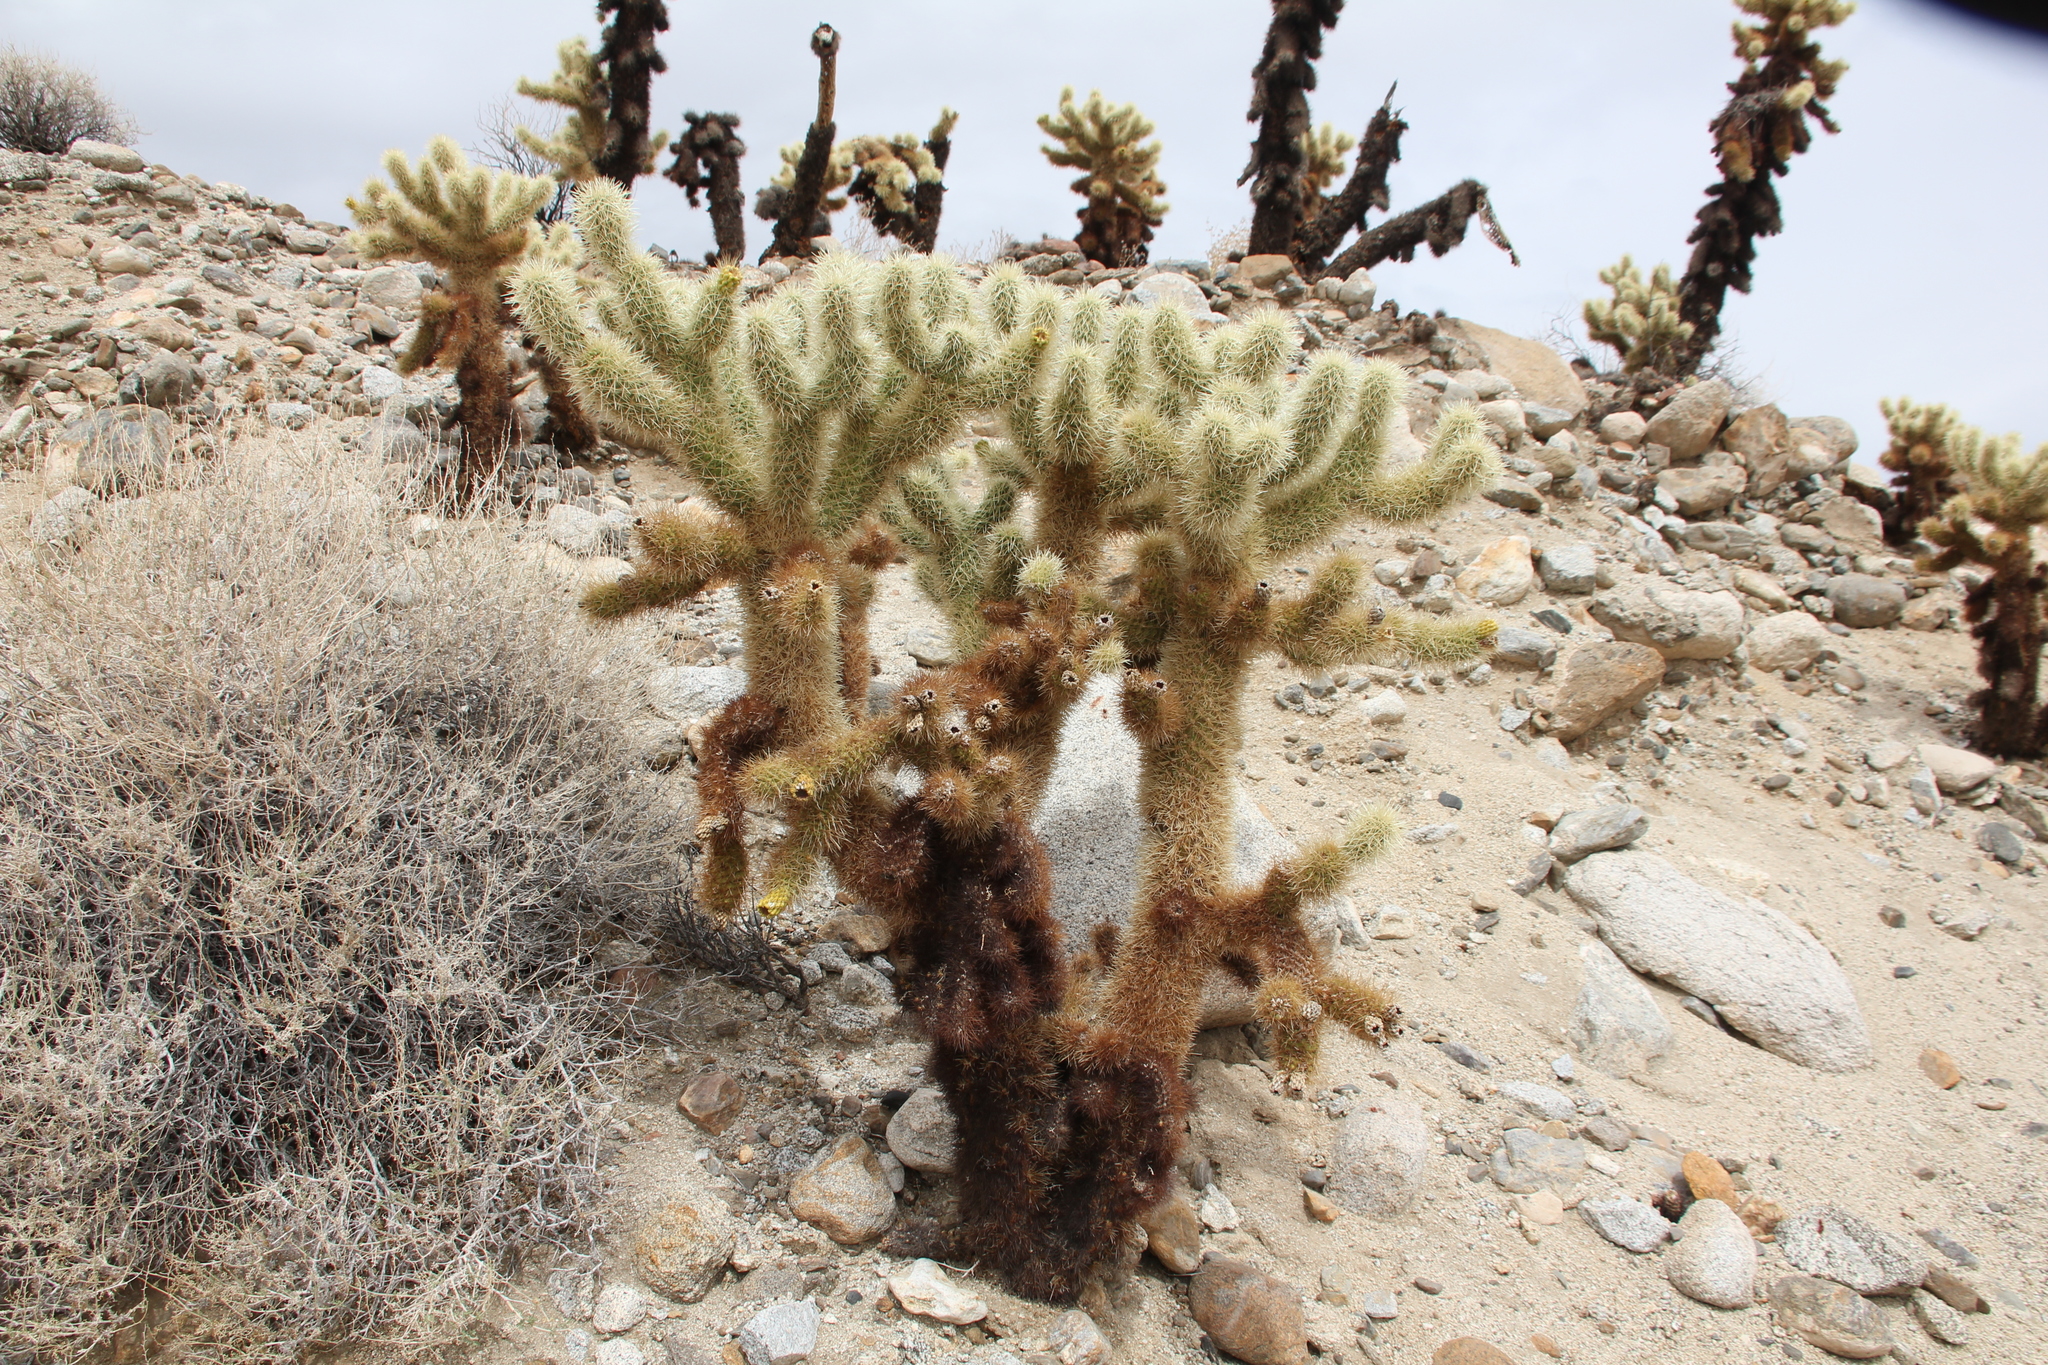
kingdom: Plantae
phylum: Tracheophyta
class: Magnoliopsida
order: Caryophyllales
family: Cactaceae
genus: Cylindropuntia
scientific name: Cylindropuntia fosbergii
